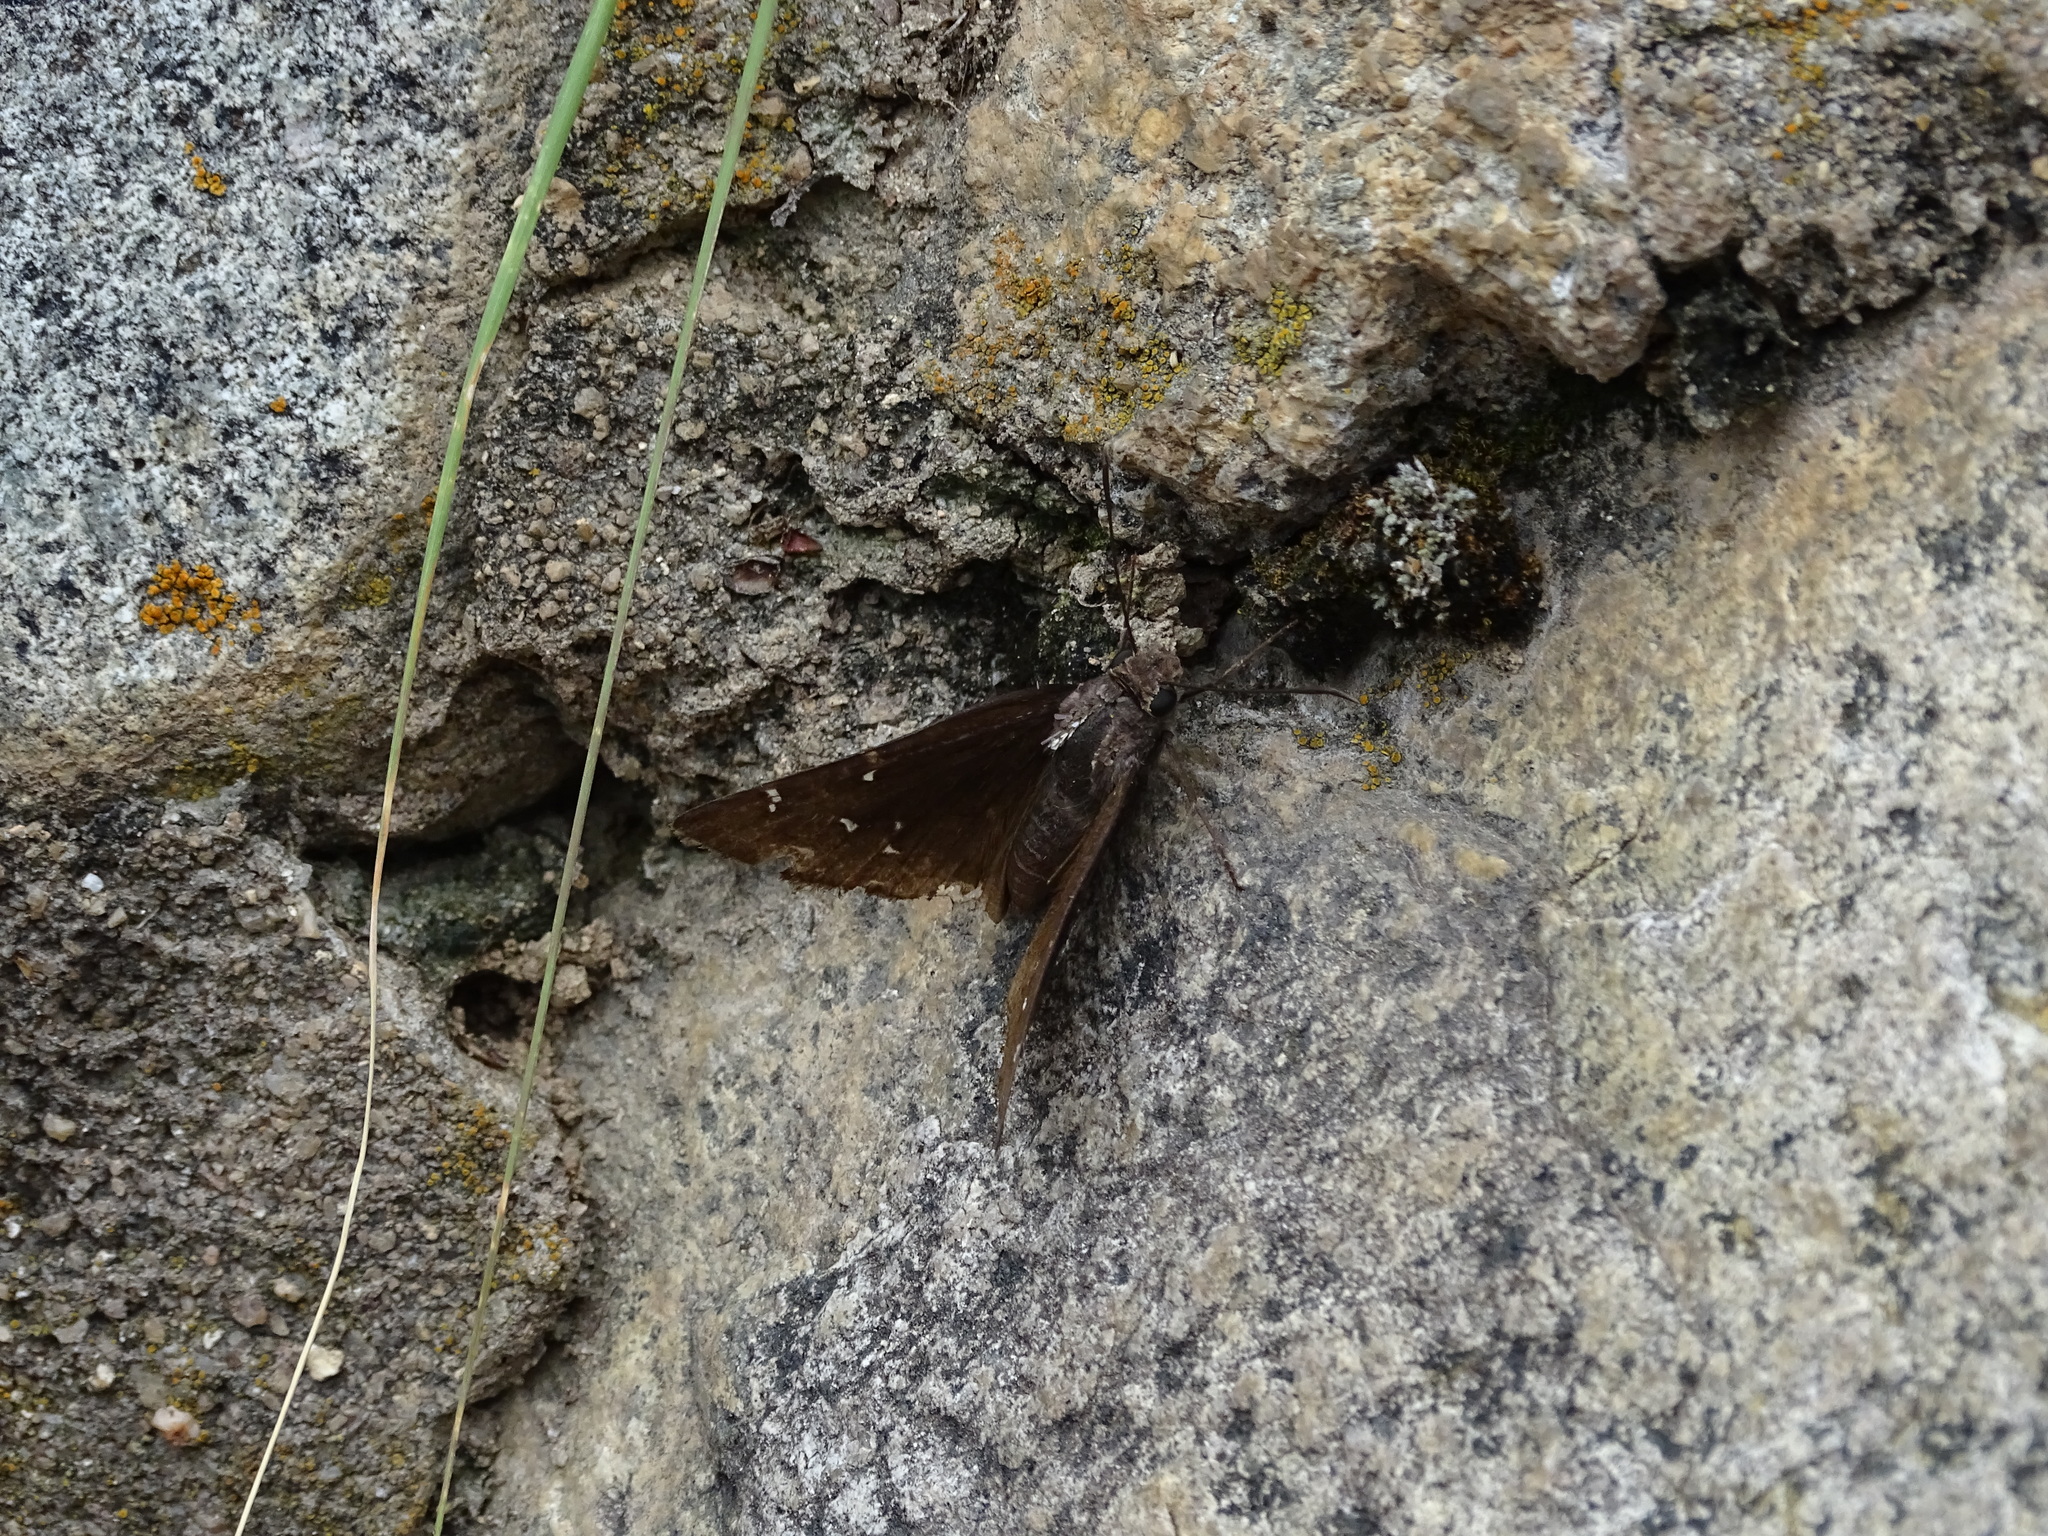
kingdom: Animalia
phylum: Arthropoda
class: Insecta
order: Lepidoptera
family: Hesperiidae
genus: Thorybes
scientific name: Thorybes pylades
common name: Northern cloudywing
